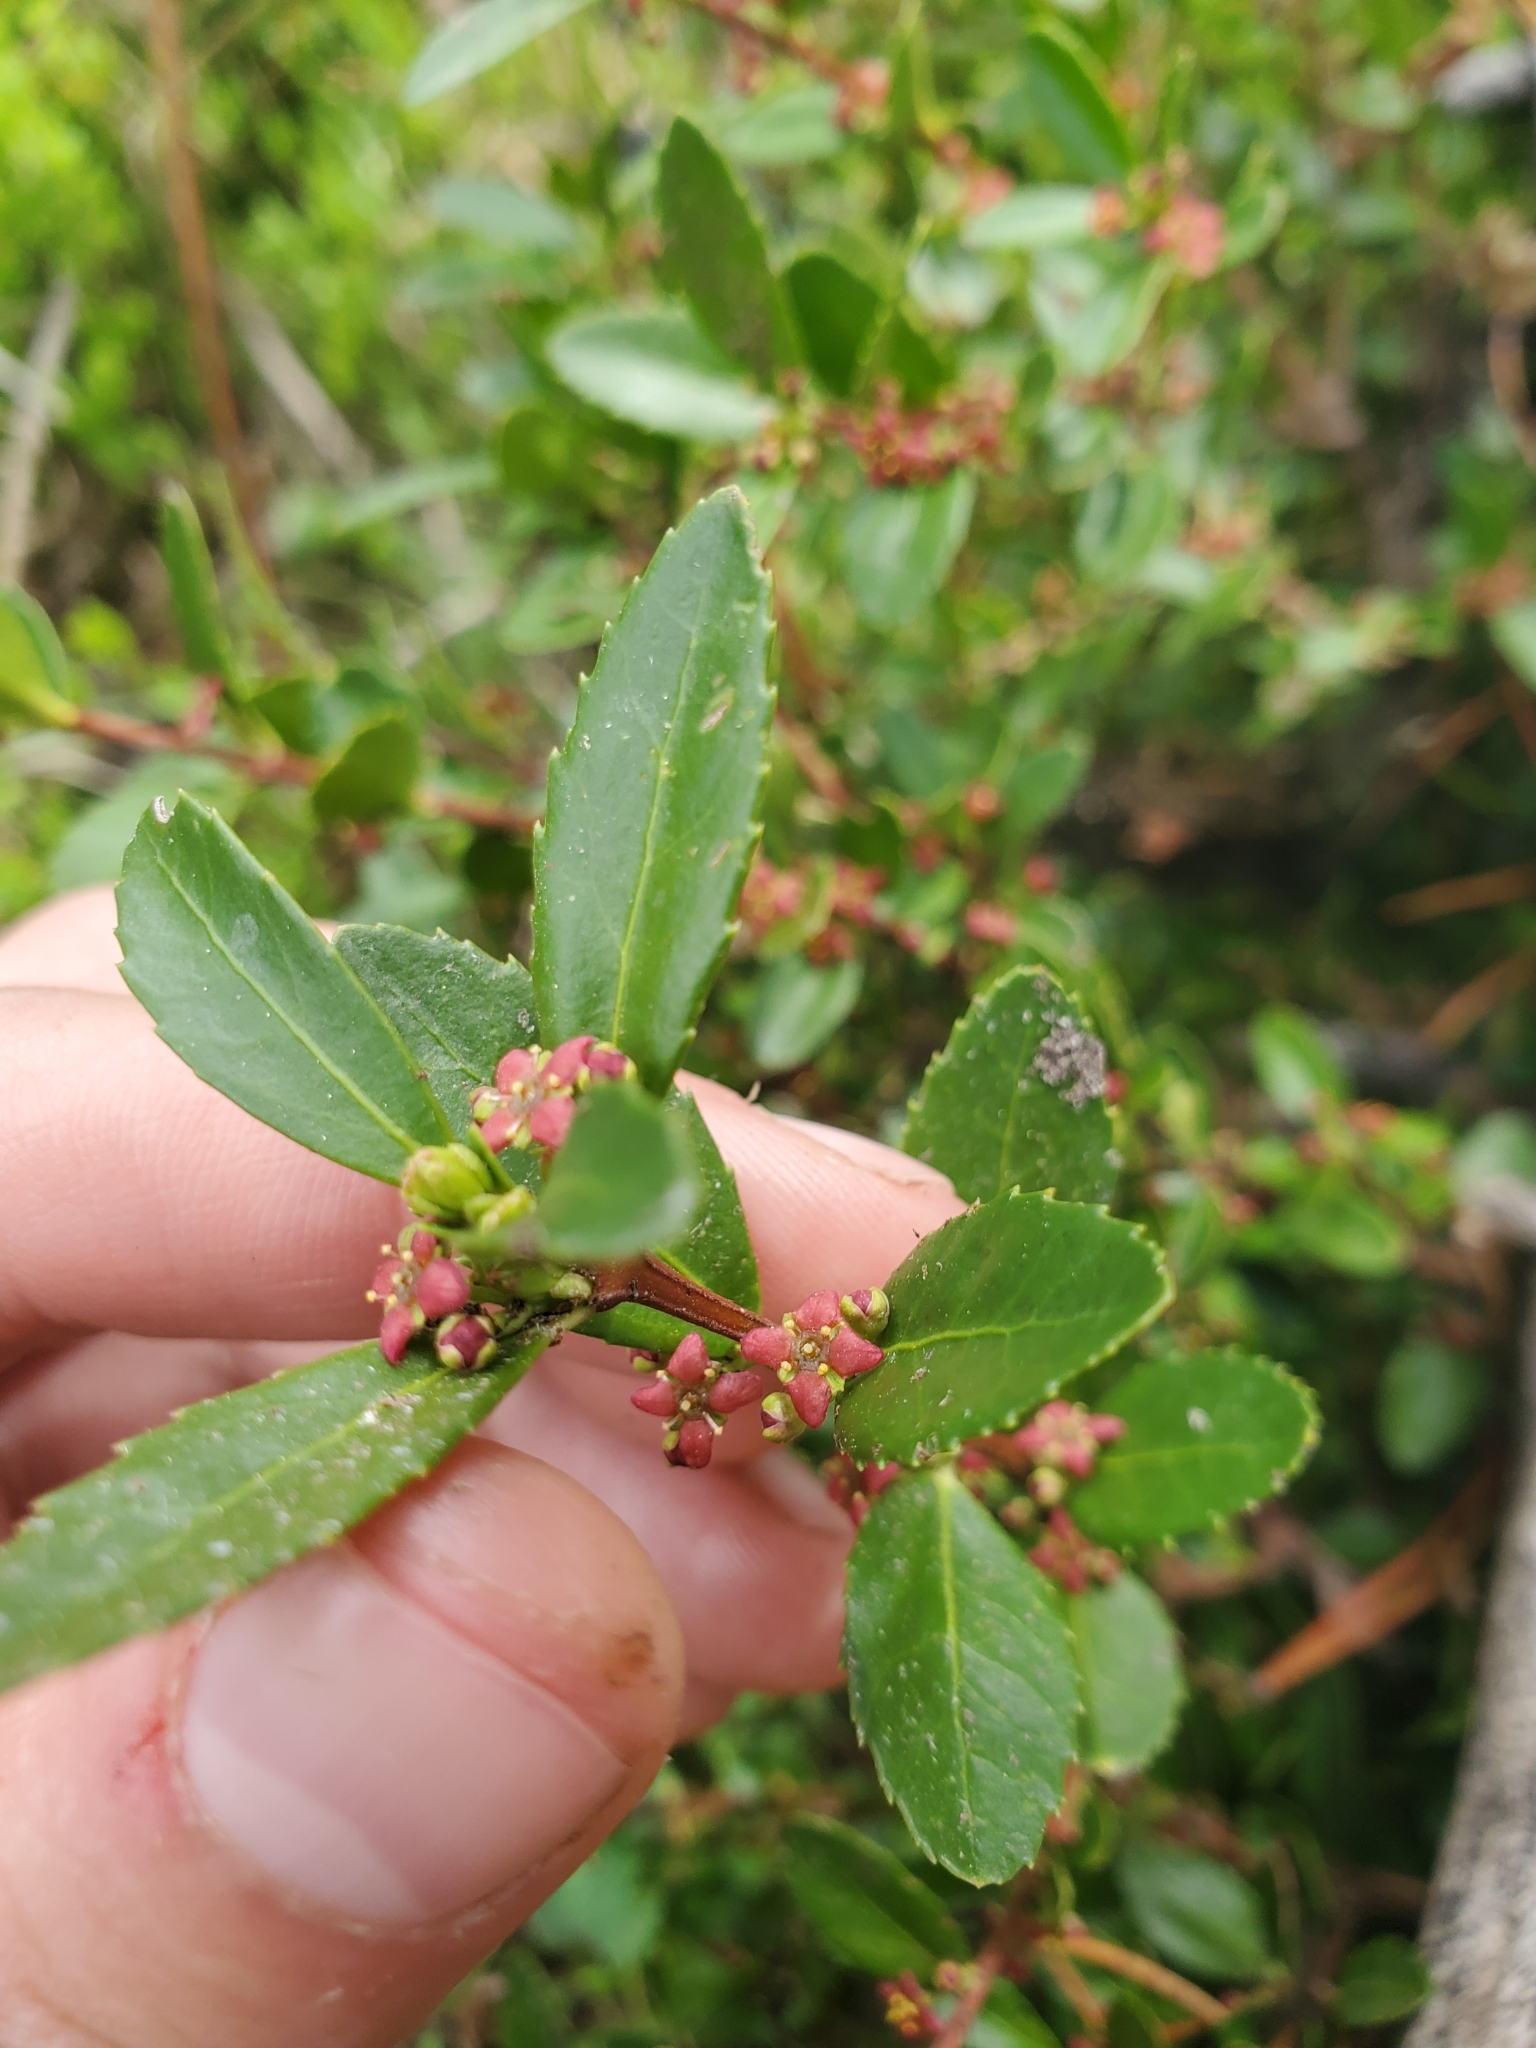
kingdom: Plantae
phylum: Tracheophyta
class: Magnoliopsida
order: Celastrales
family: Celastraceae
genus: Paxistima
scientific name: Paxistima myrsinites
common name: Mountain-lover
